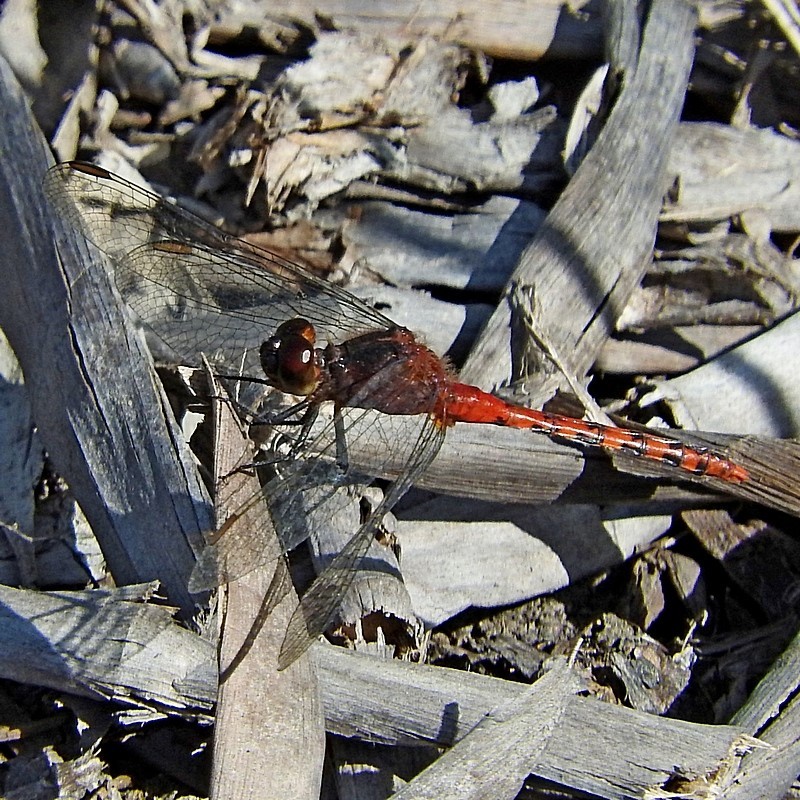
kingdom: Animalia
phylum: Arthropoda
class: Insecta
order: Odonata
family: Libellulidae
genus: Diplacodes
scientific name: Diplacodes melanopsis
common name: Black-faced percher
